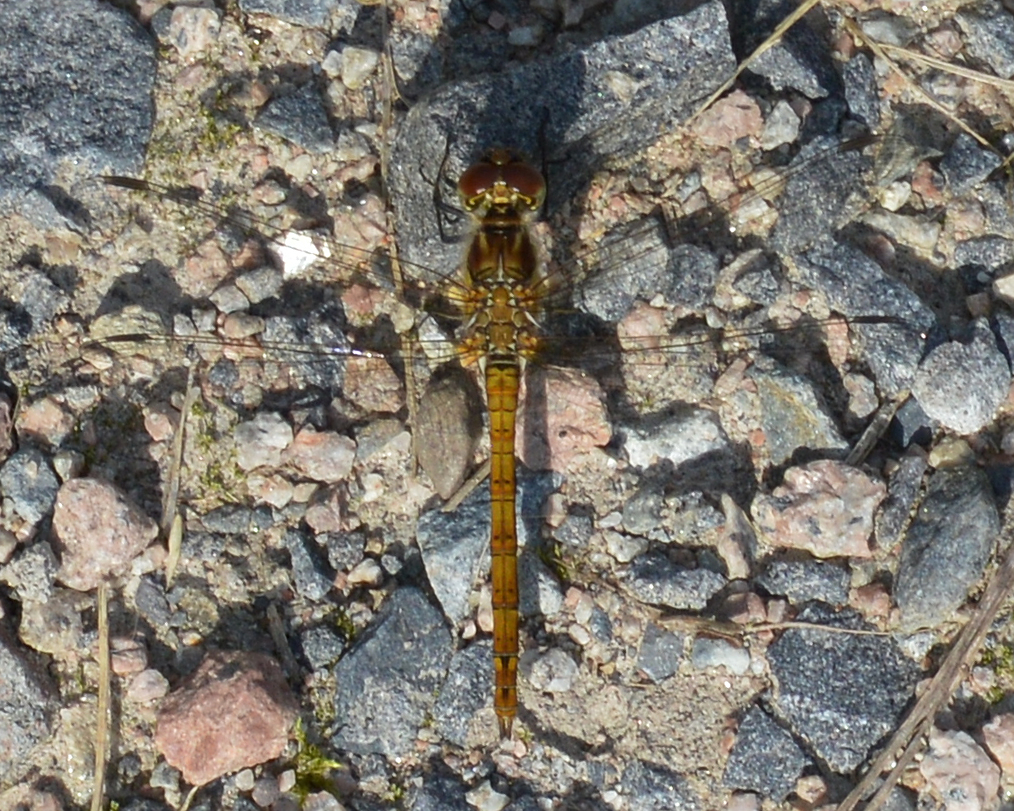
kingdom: Animalia
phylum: Arthropoda
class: Insecta
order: Odonata
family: Libellulidae
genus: Sympetrum
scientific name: Sympetrum striolatum
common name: Common darter
